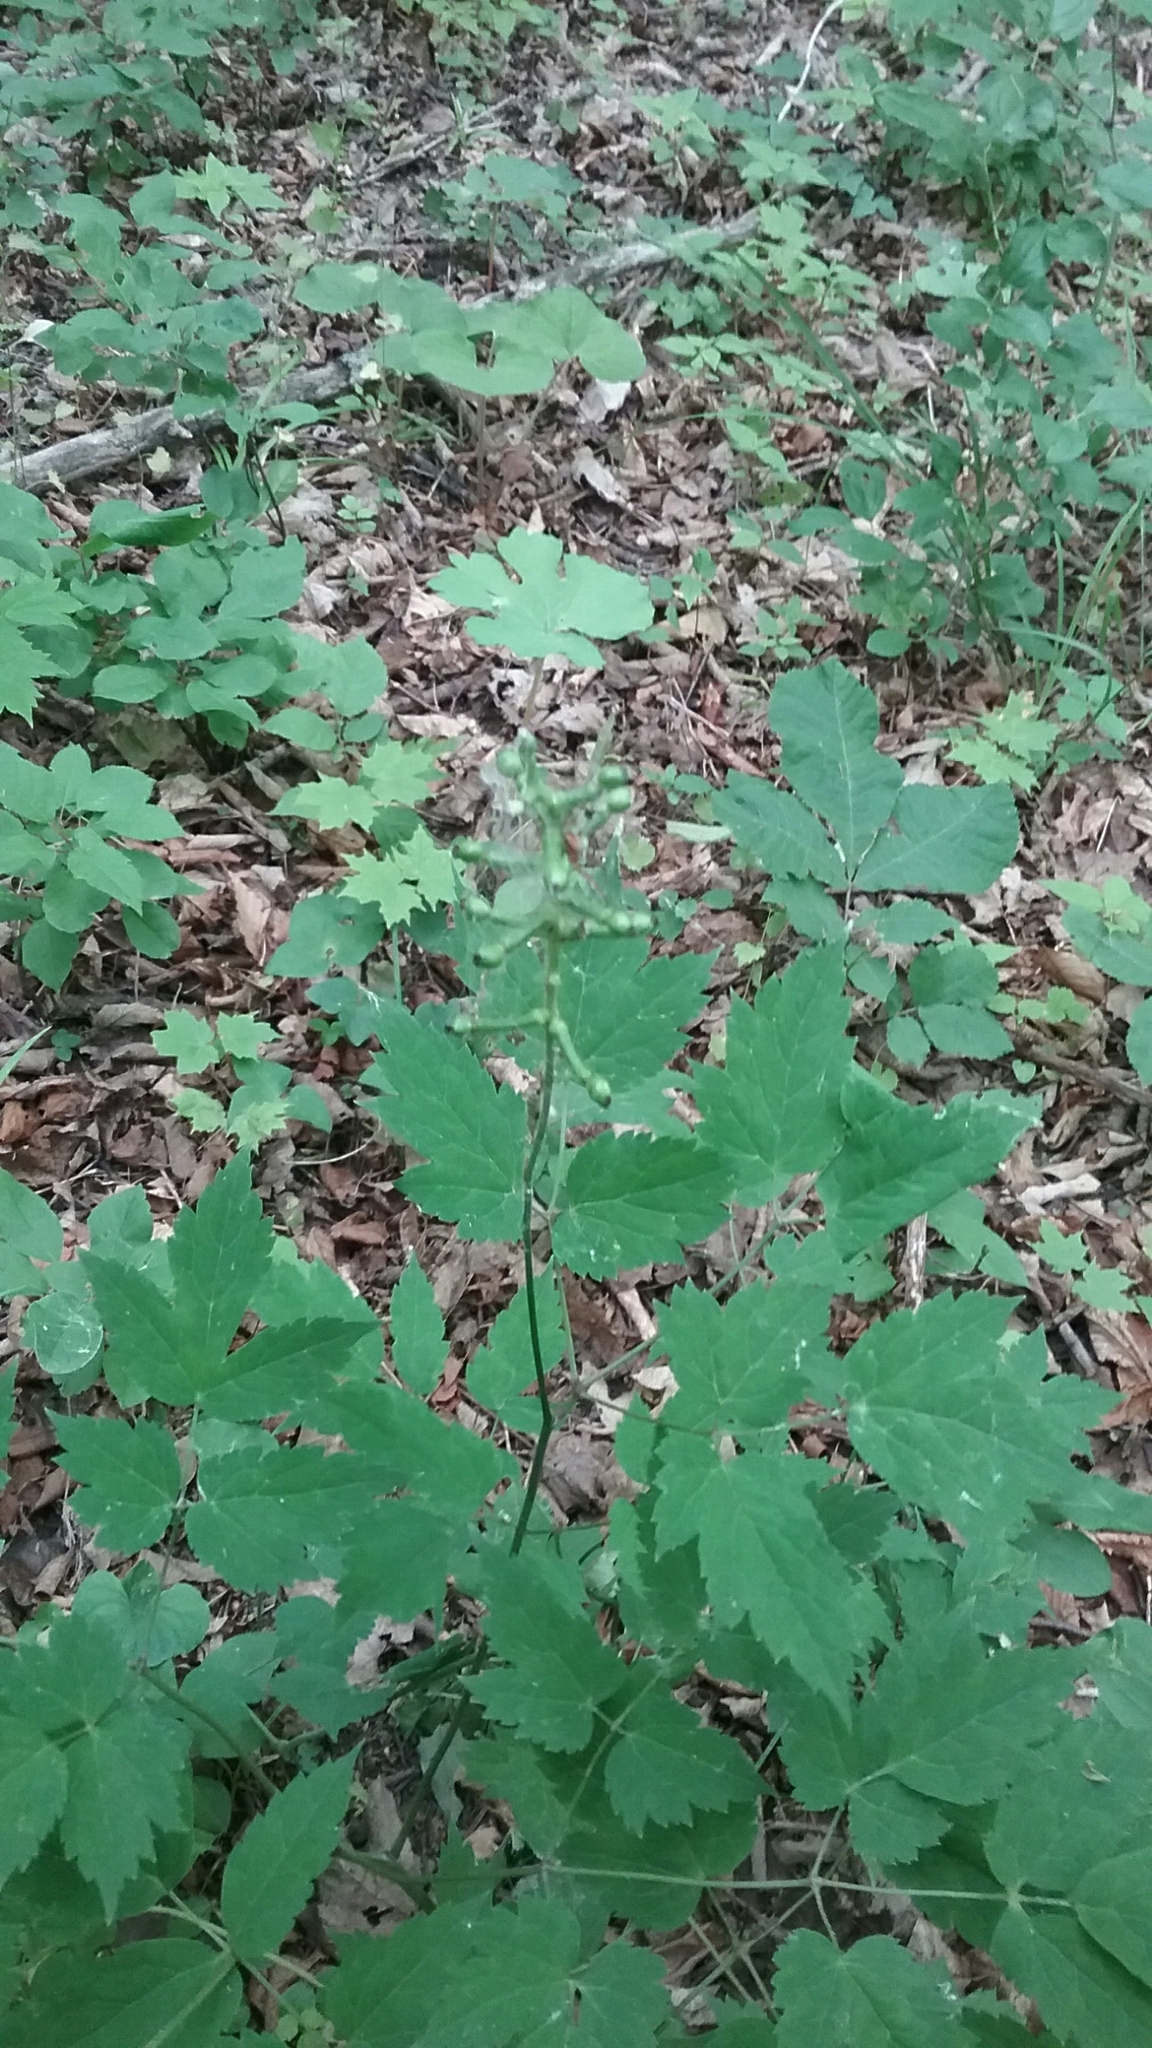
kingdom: Plantae
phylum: Tracheophyta
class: Magnoliopsida
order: Ranunculales
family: Ranunculaceae
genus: Actaea
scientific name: Actaea pachypoda
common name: Doll's-eyes
